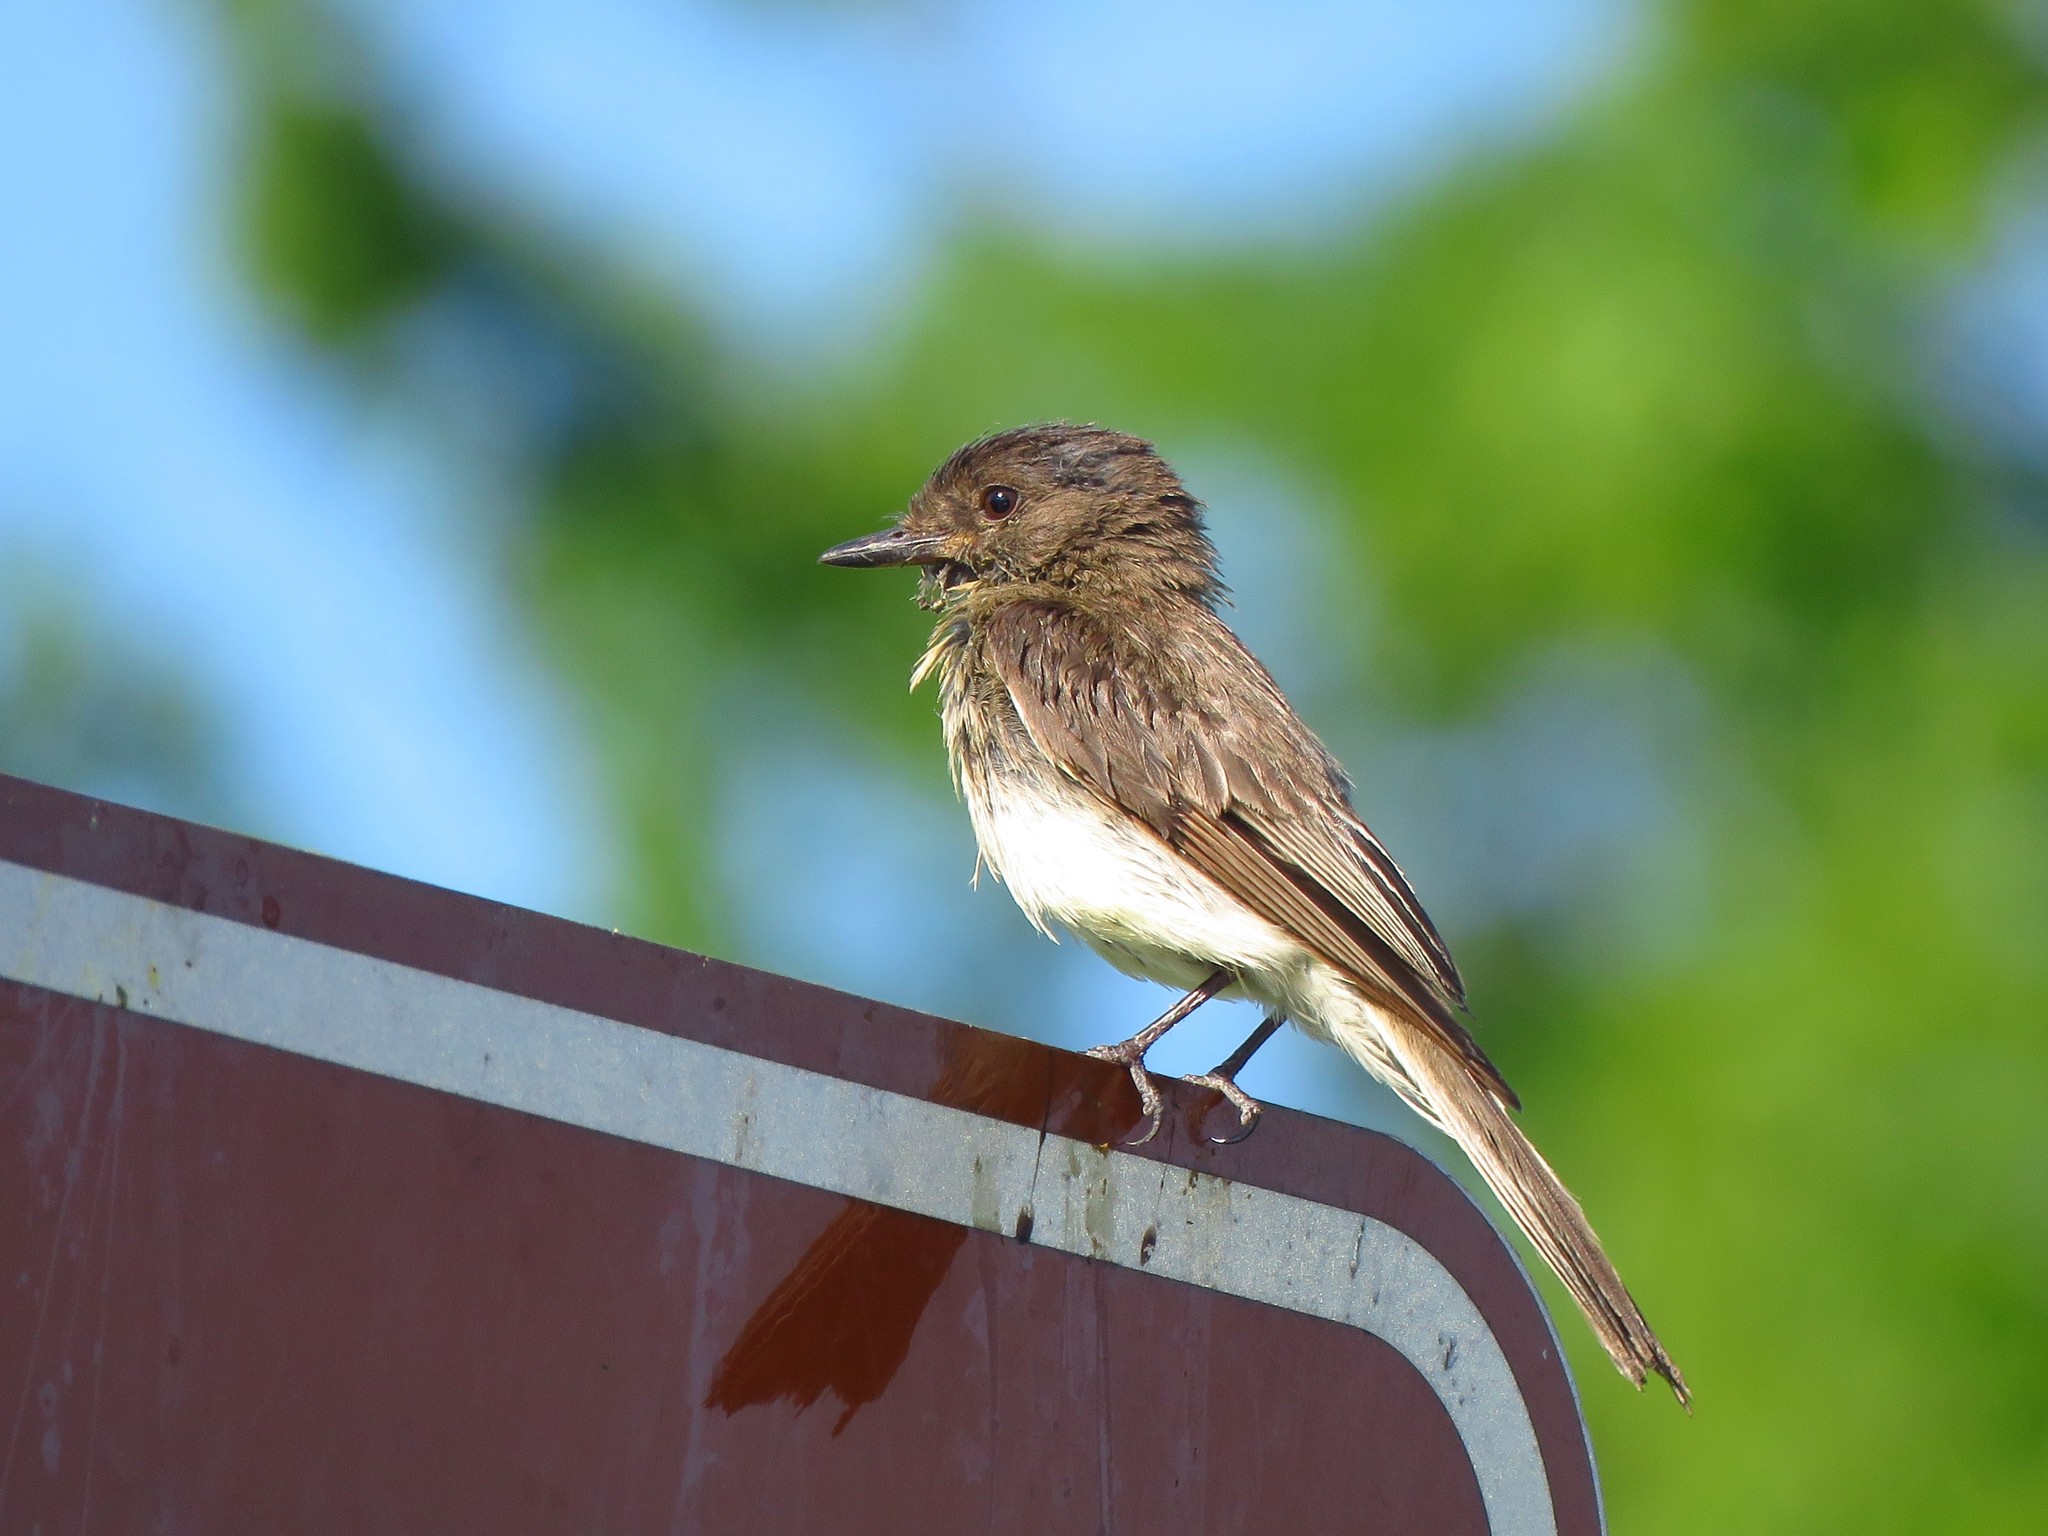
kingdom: Animalia
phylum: Chordata
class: Aves
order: Passeriformes
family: Tyrannidae
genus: Sayornis
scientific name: Sayornis phoebe
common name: Eastern phoebe
